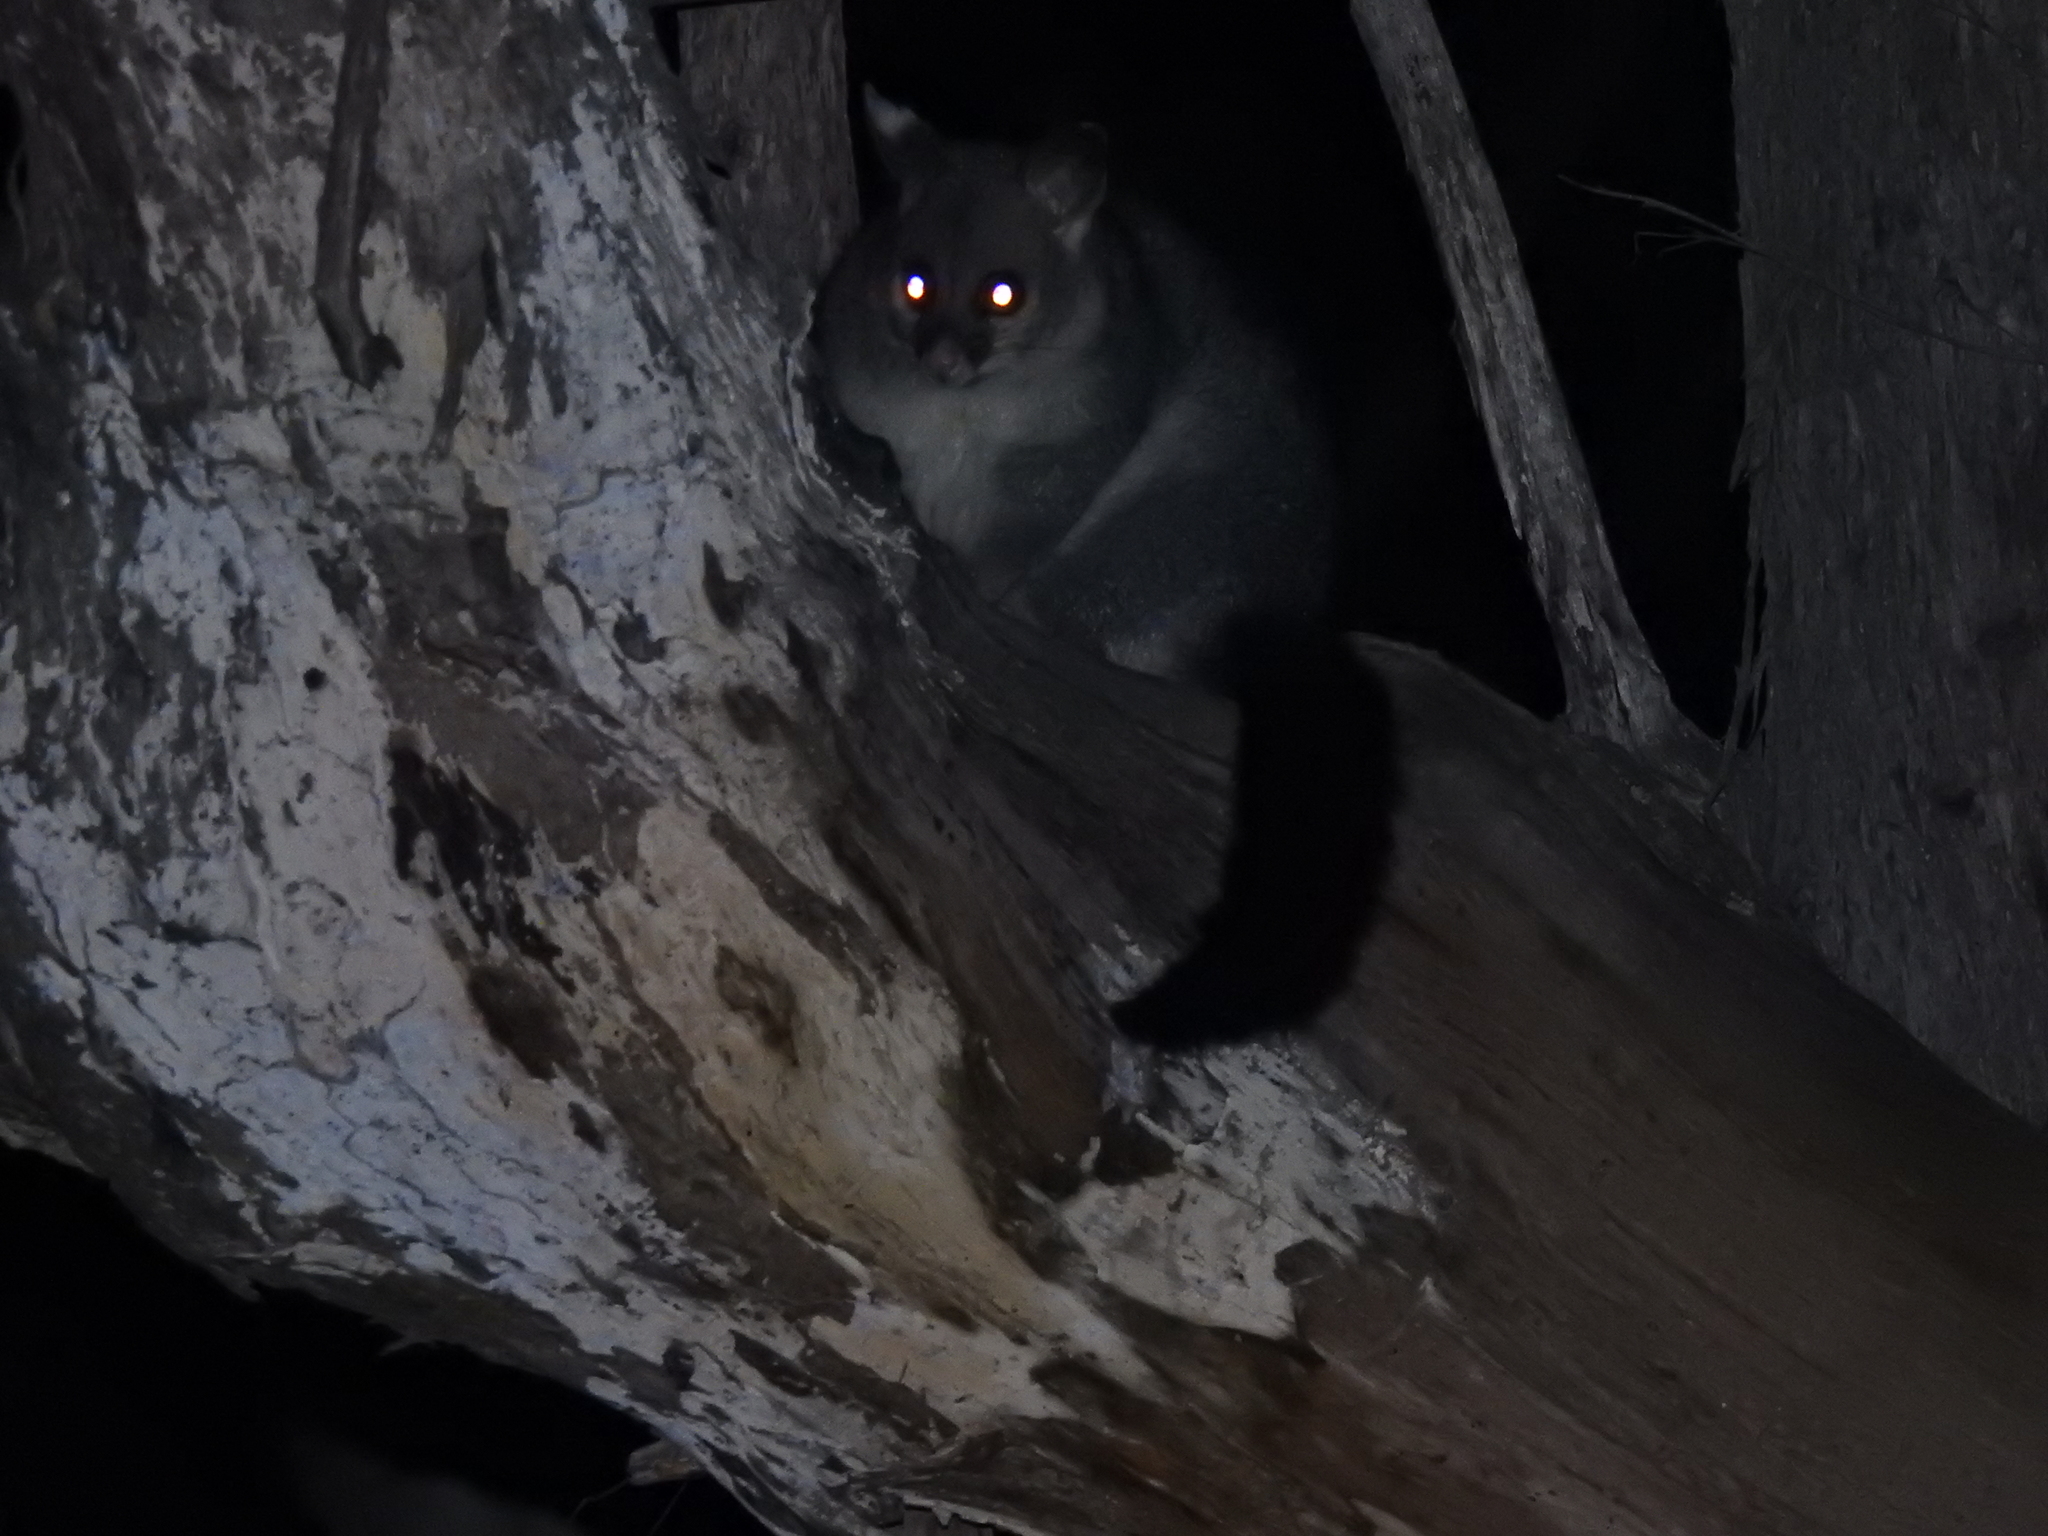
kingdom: Animalia
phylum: Chordata
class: Mammalia
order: Diprotodontia
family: Phalangeridae
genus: Trichosurus
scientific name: Trichosurus vulpecula
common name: Common brushtail
